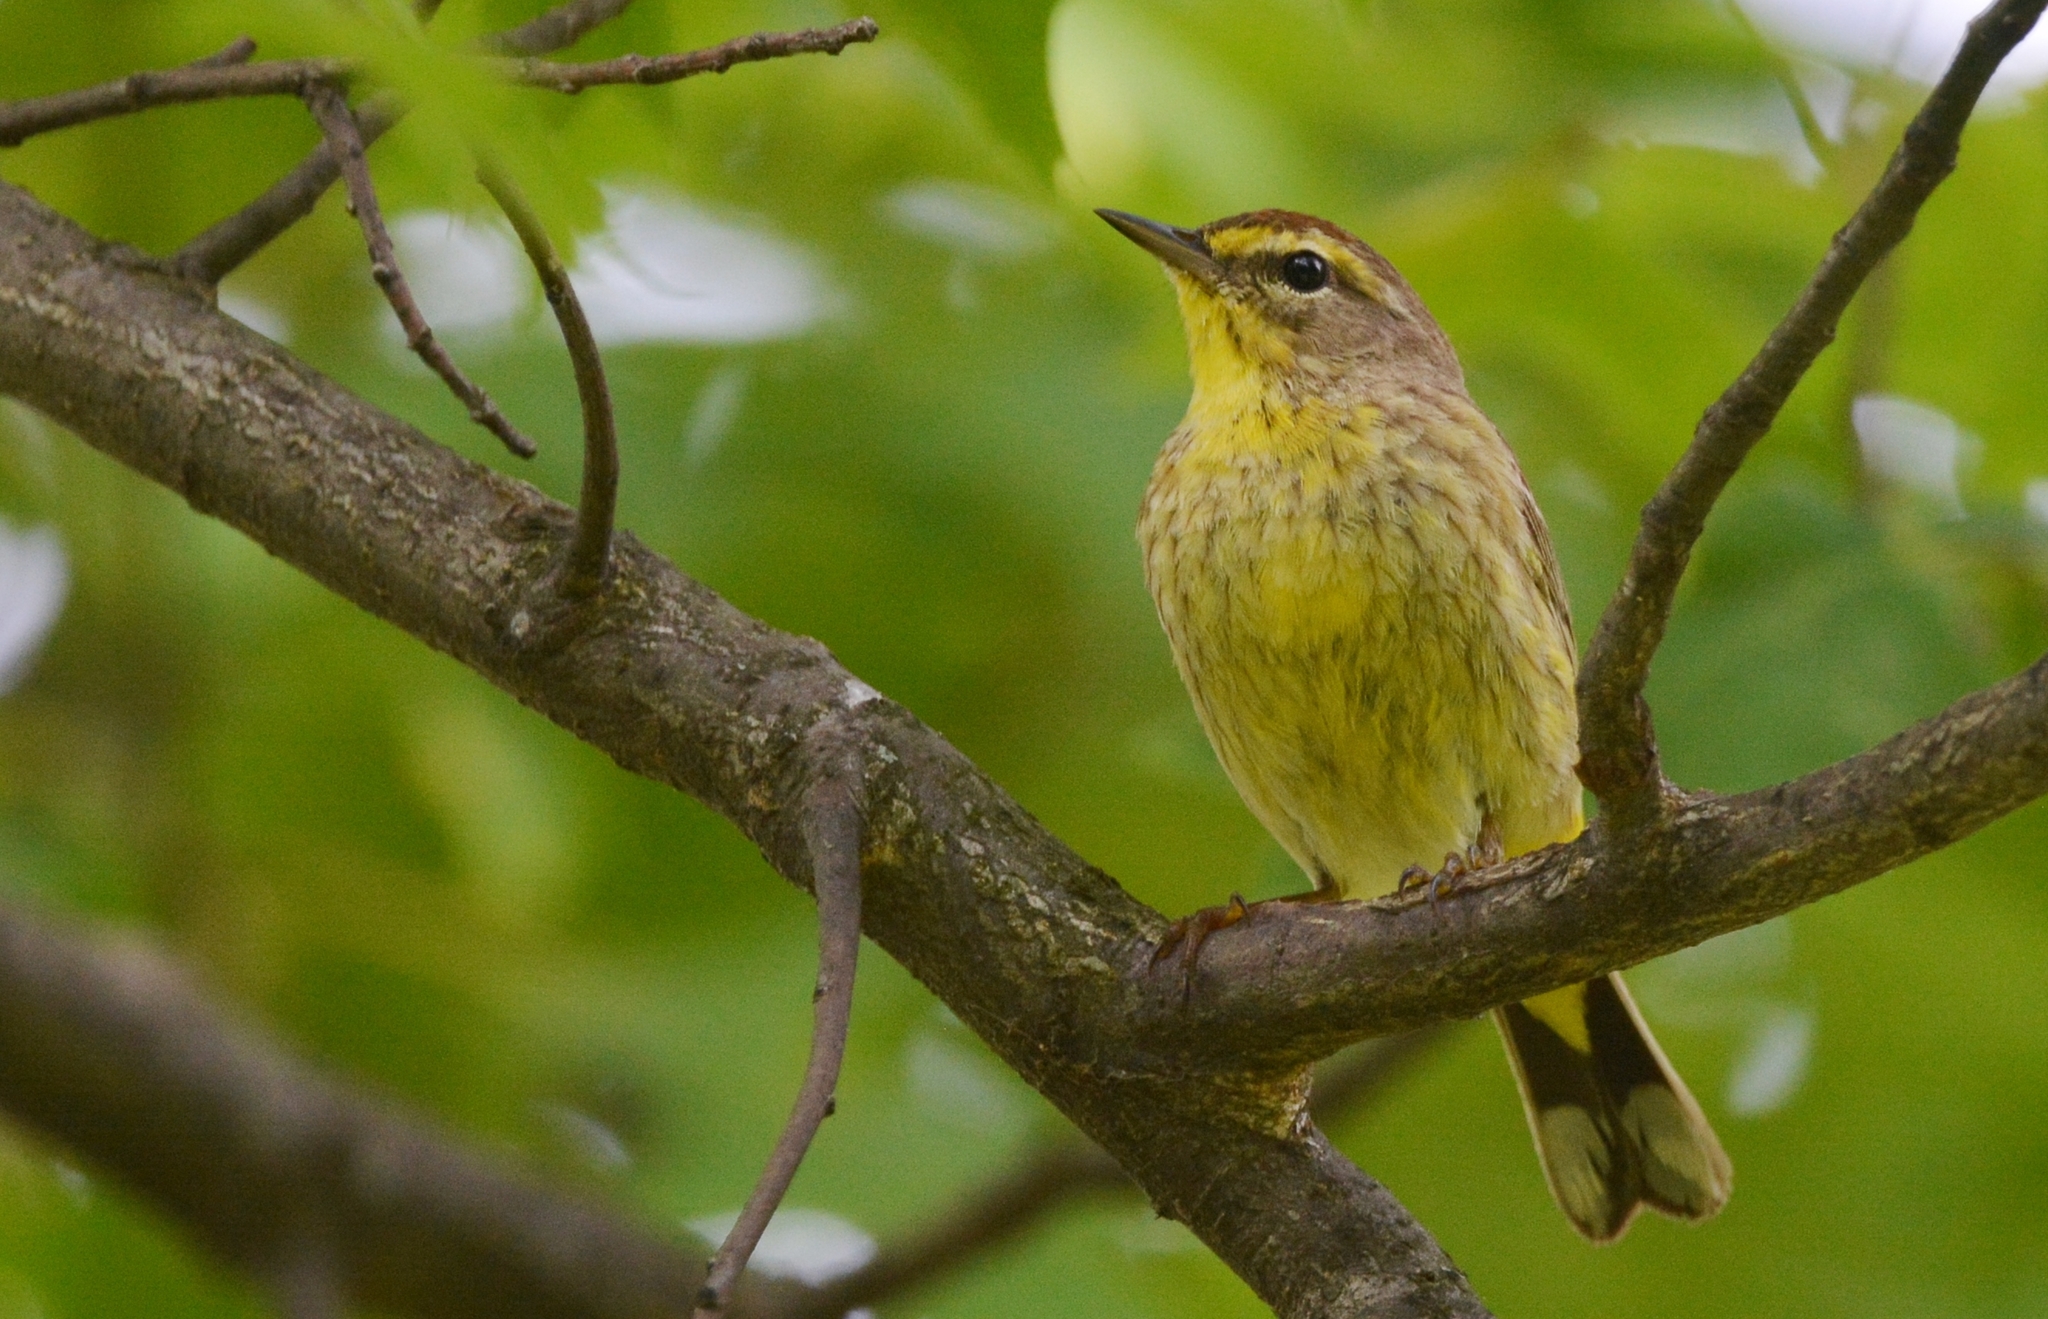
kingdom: Animalia
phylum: Chordata
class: Aves
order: Passeriformes
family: Parulidae
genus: Setophaga
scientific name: Setophaga palmarum
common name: Palm warbler
